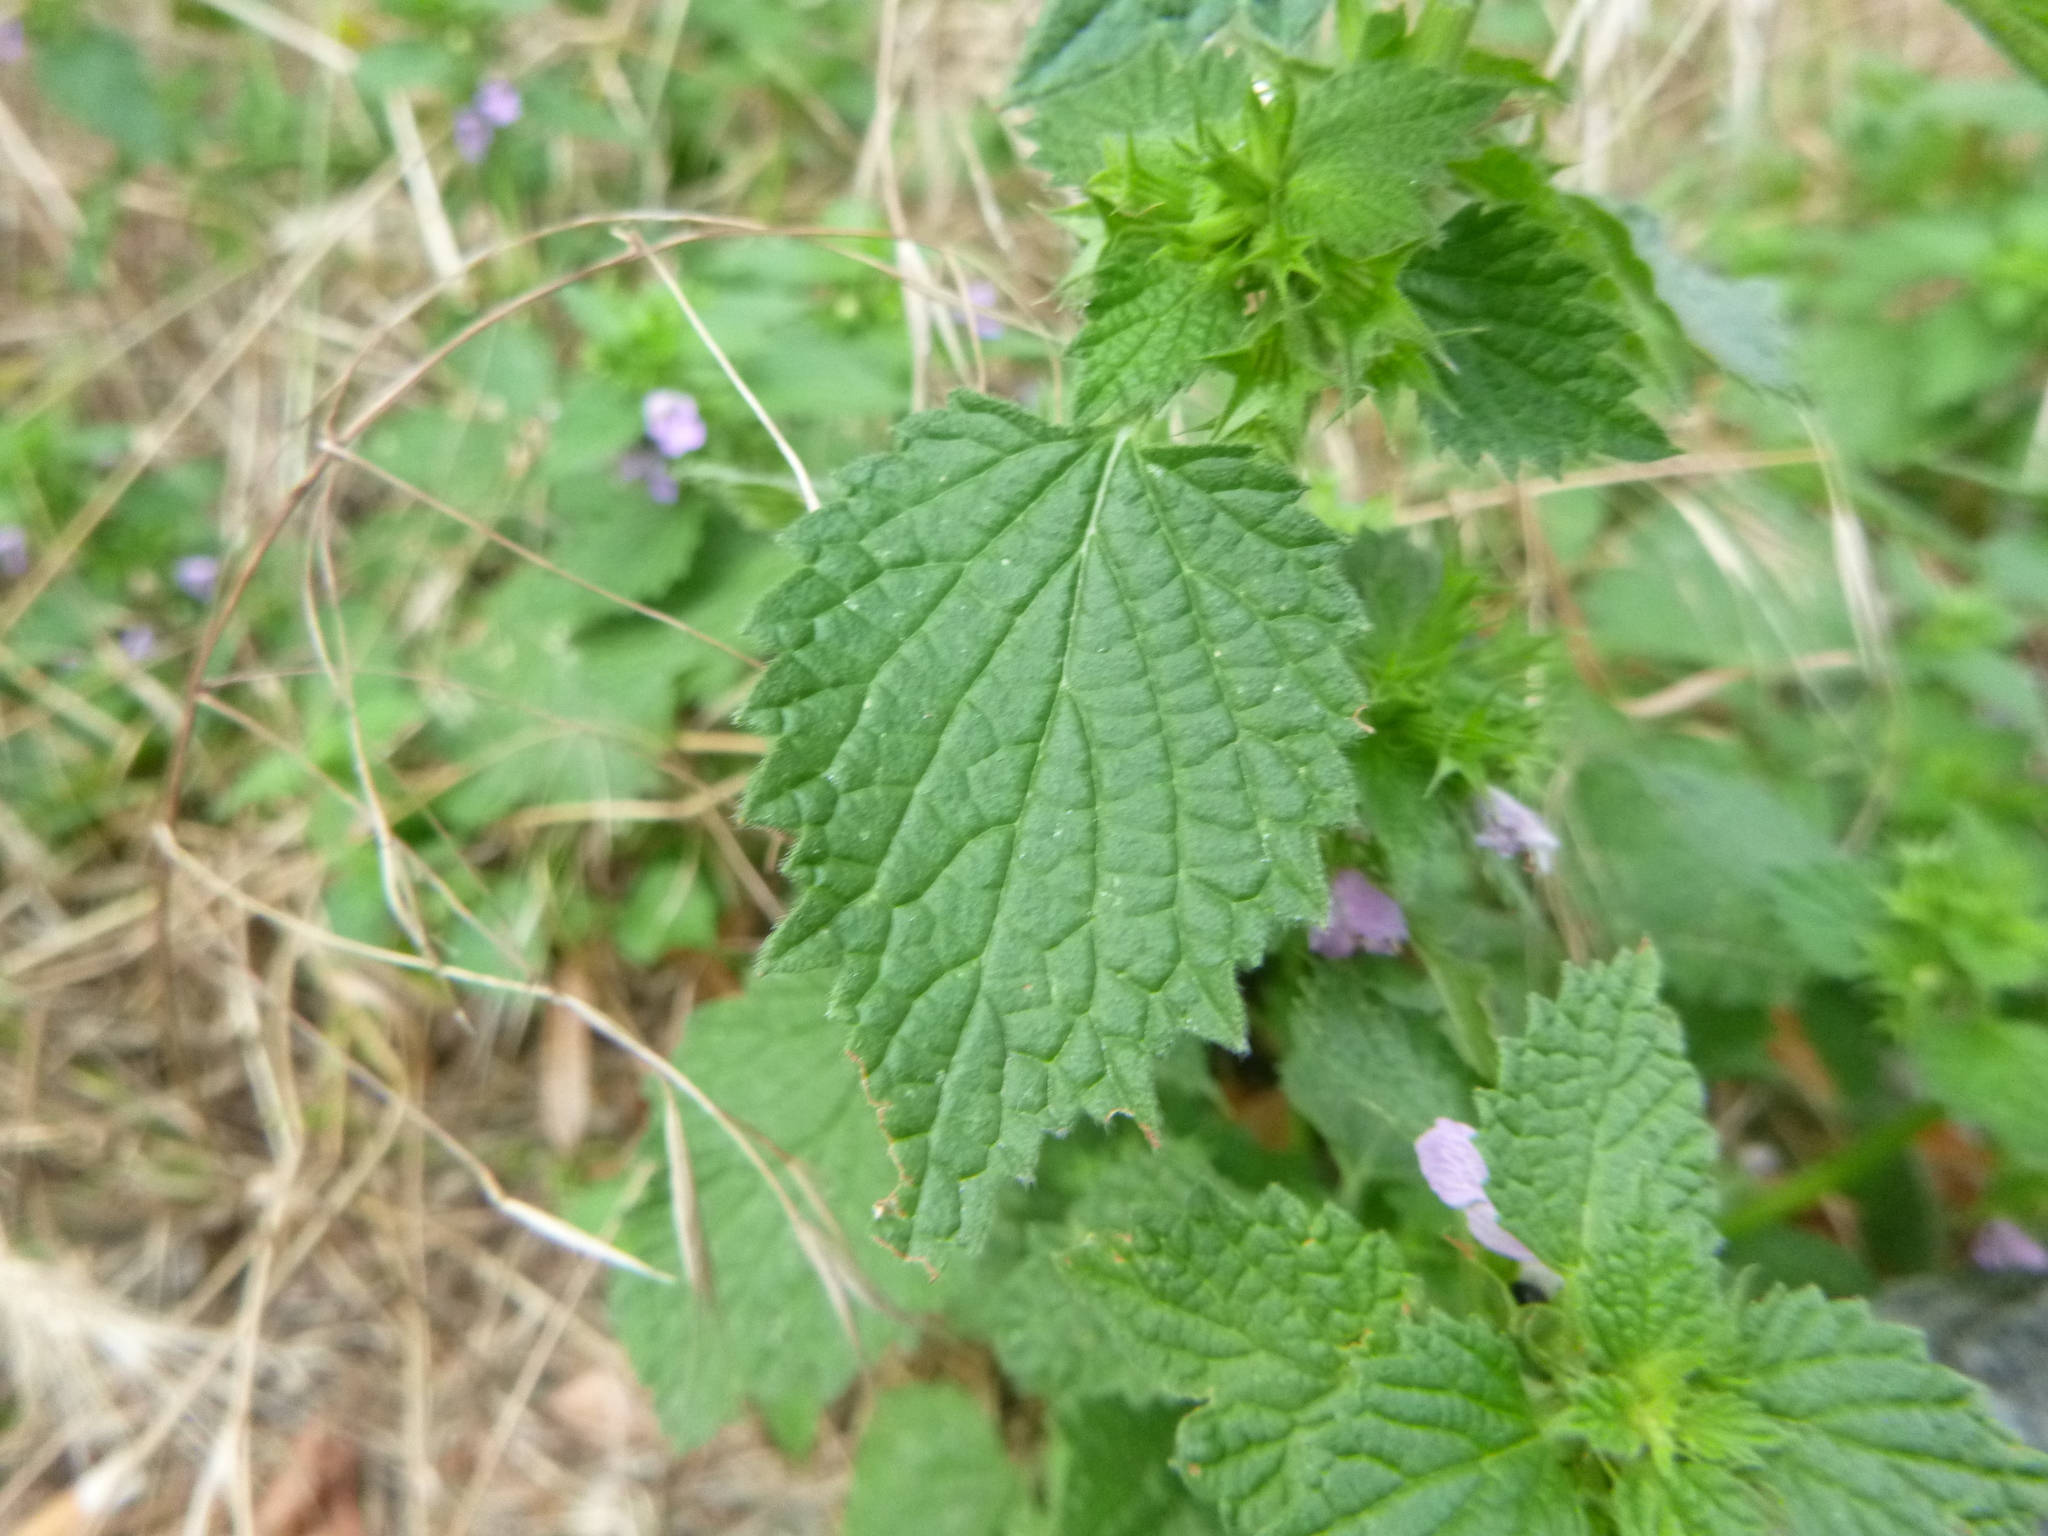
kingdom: Plantae
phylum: Tracheophyta
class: Magnoliopsida
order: Lamiales
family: Lamiaceae
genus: Ballota
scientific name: Ballota nigra
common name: Black horehound
